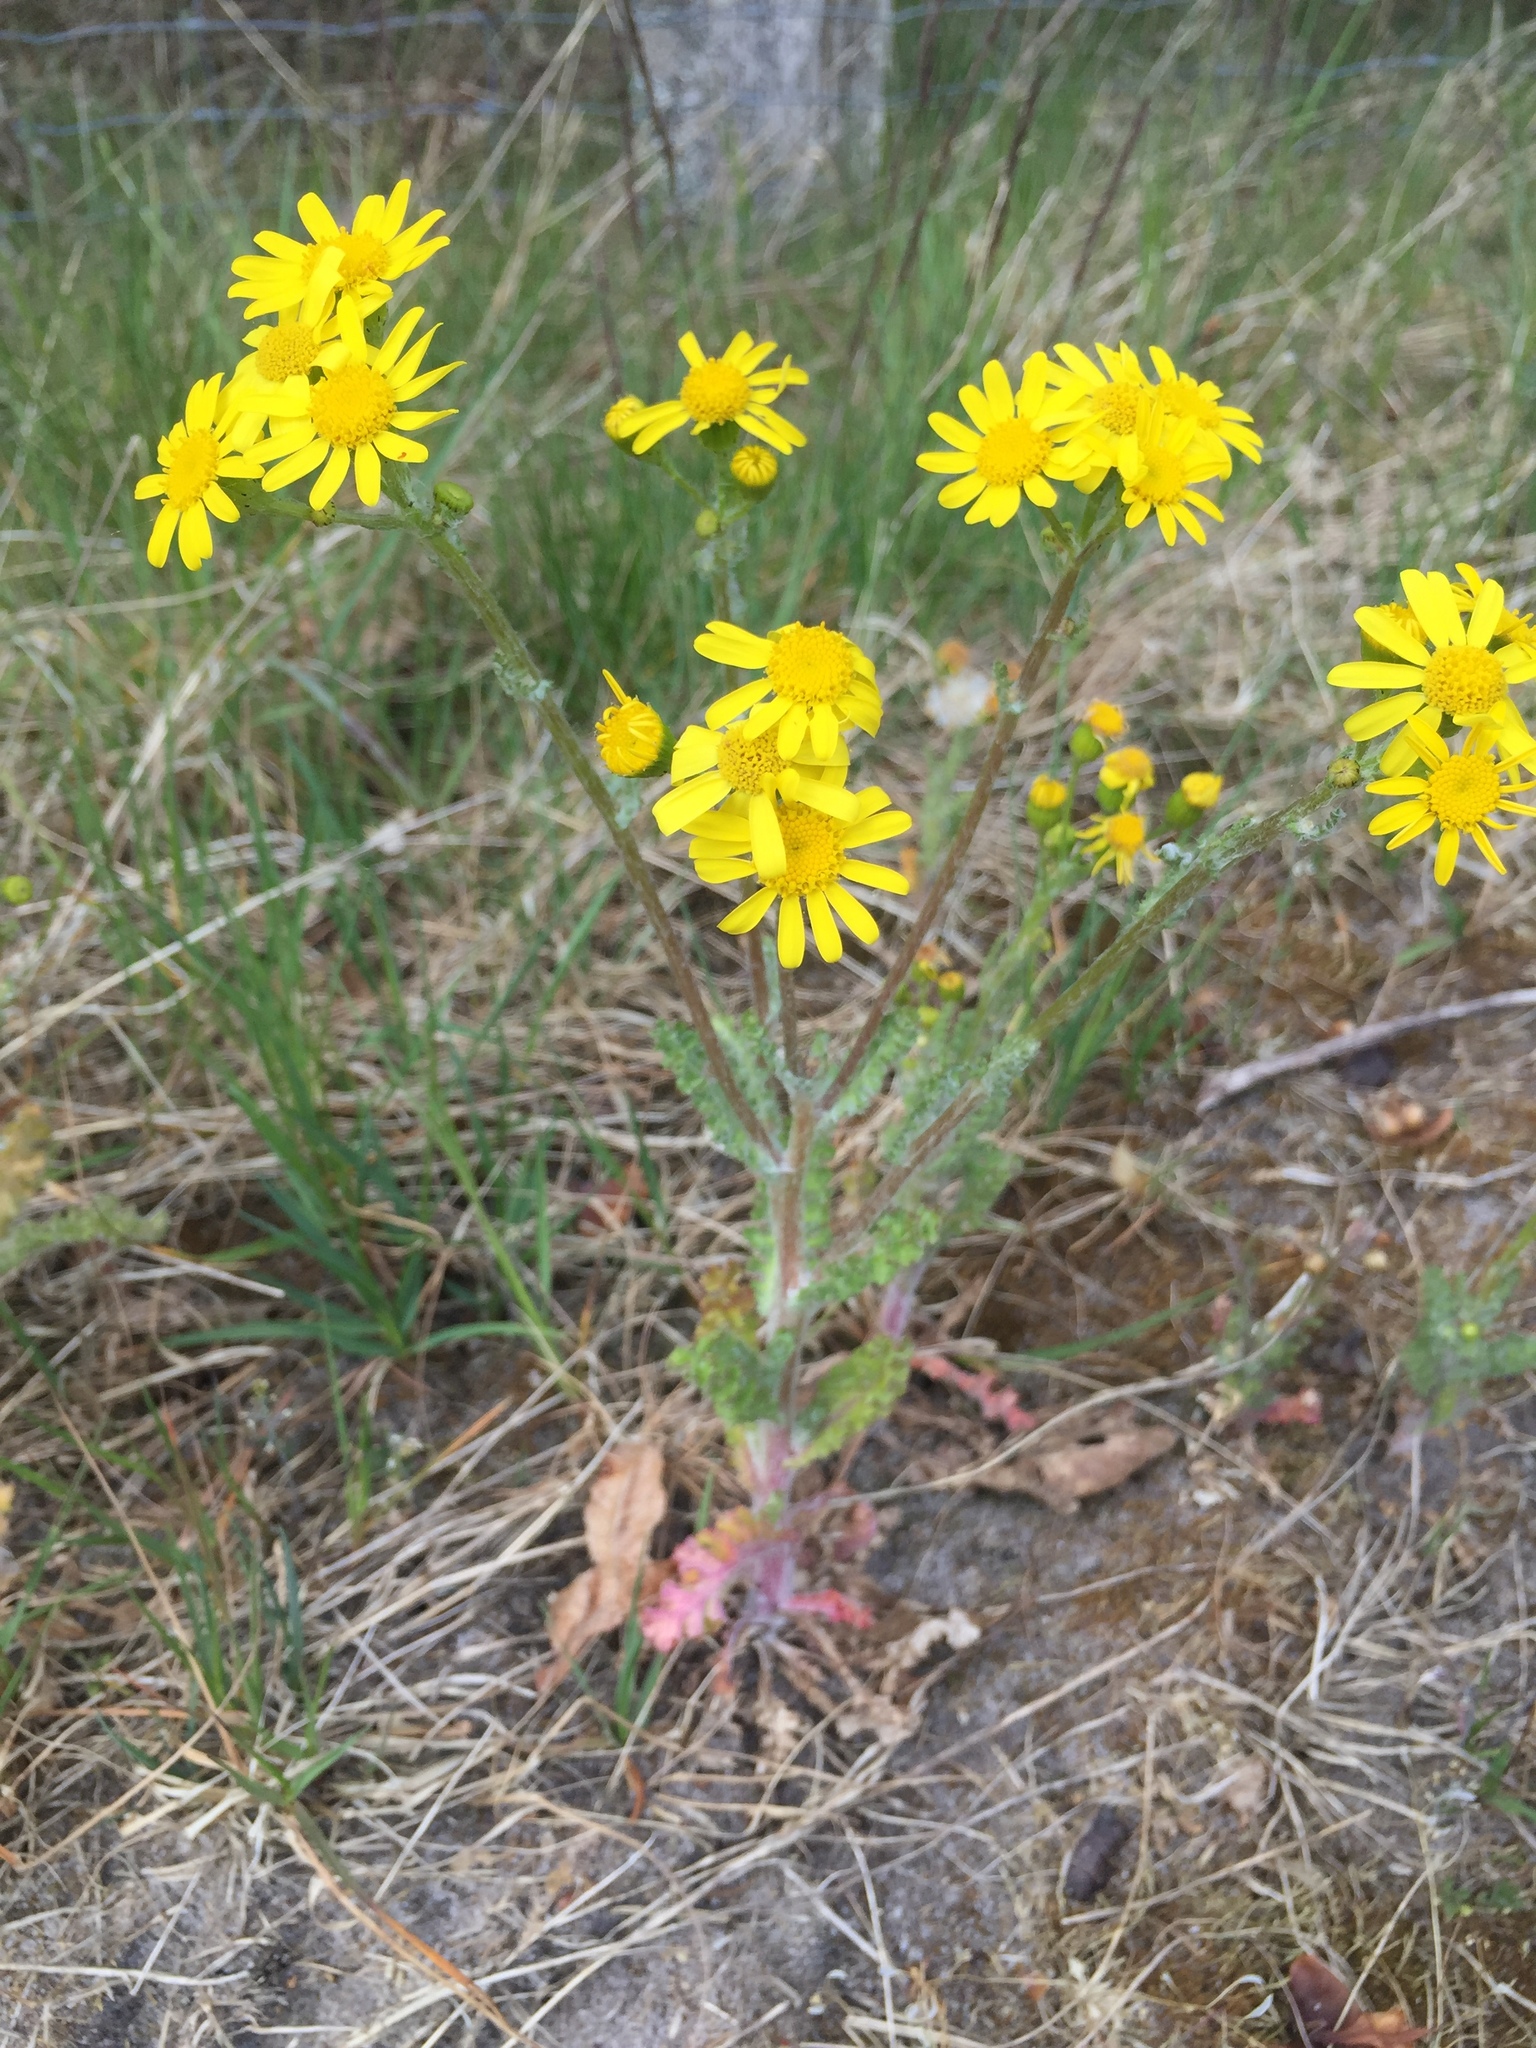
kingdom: Plantae
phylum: Tracheophyta
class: Magnoliopsida
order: Asterales
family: Asteraceae
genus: Senecio
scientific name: Senecio vernalis
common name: Eastern groundsel
